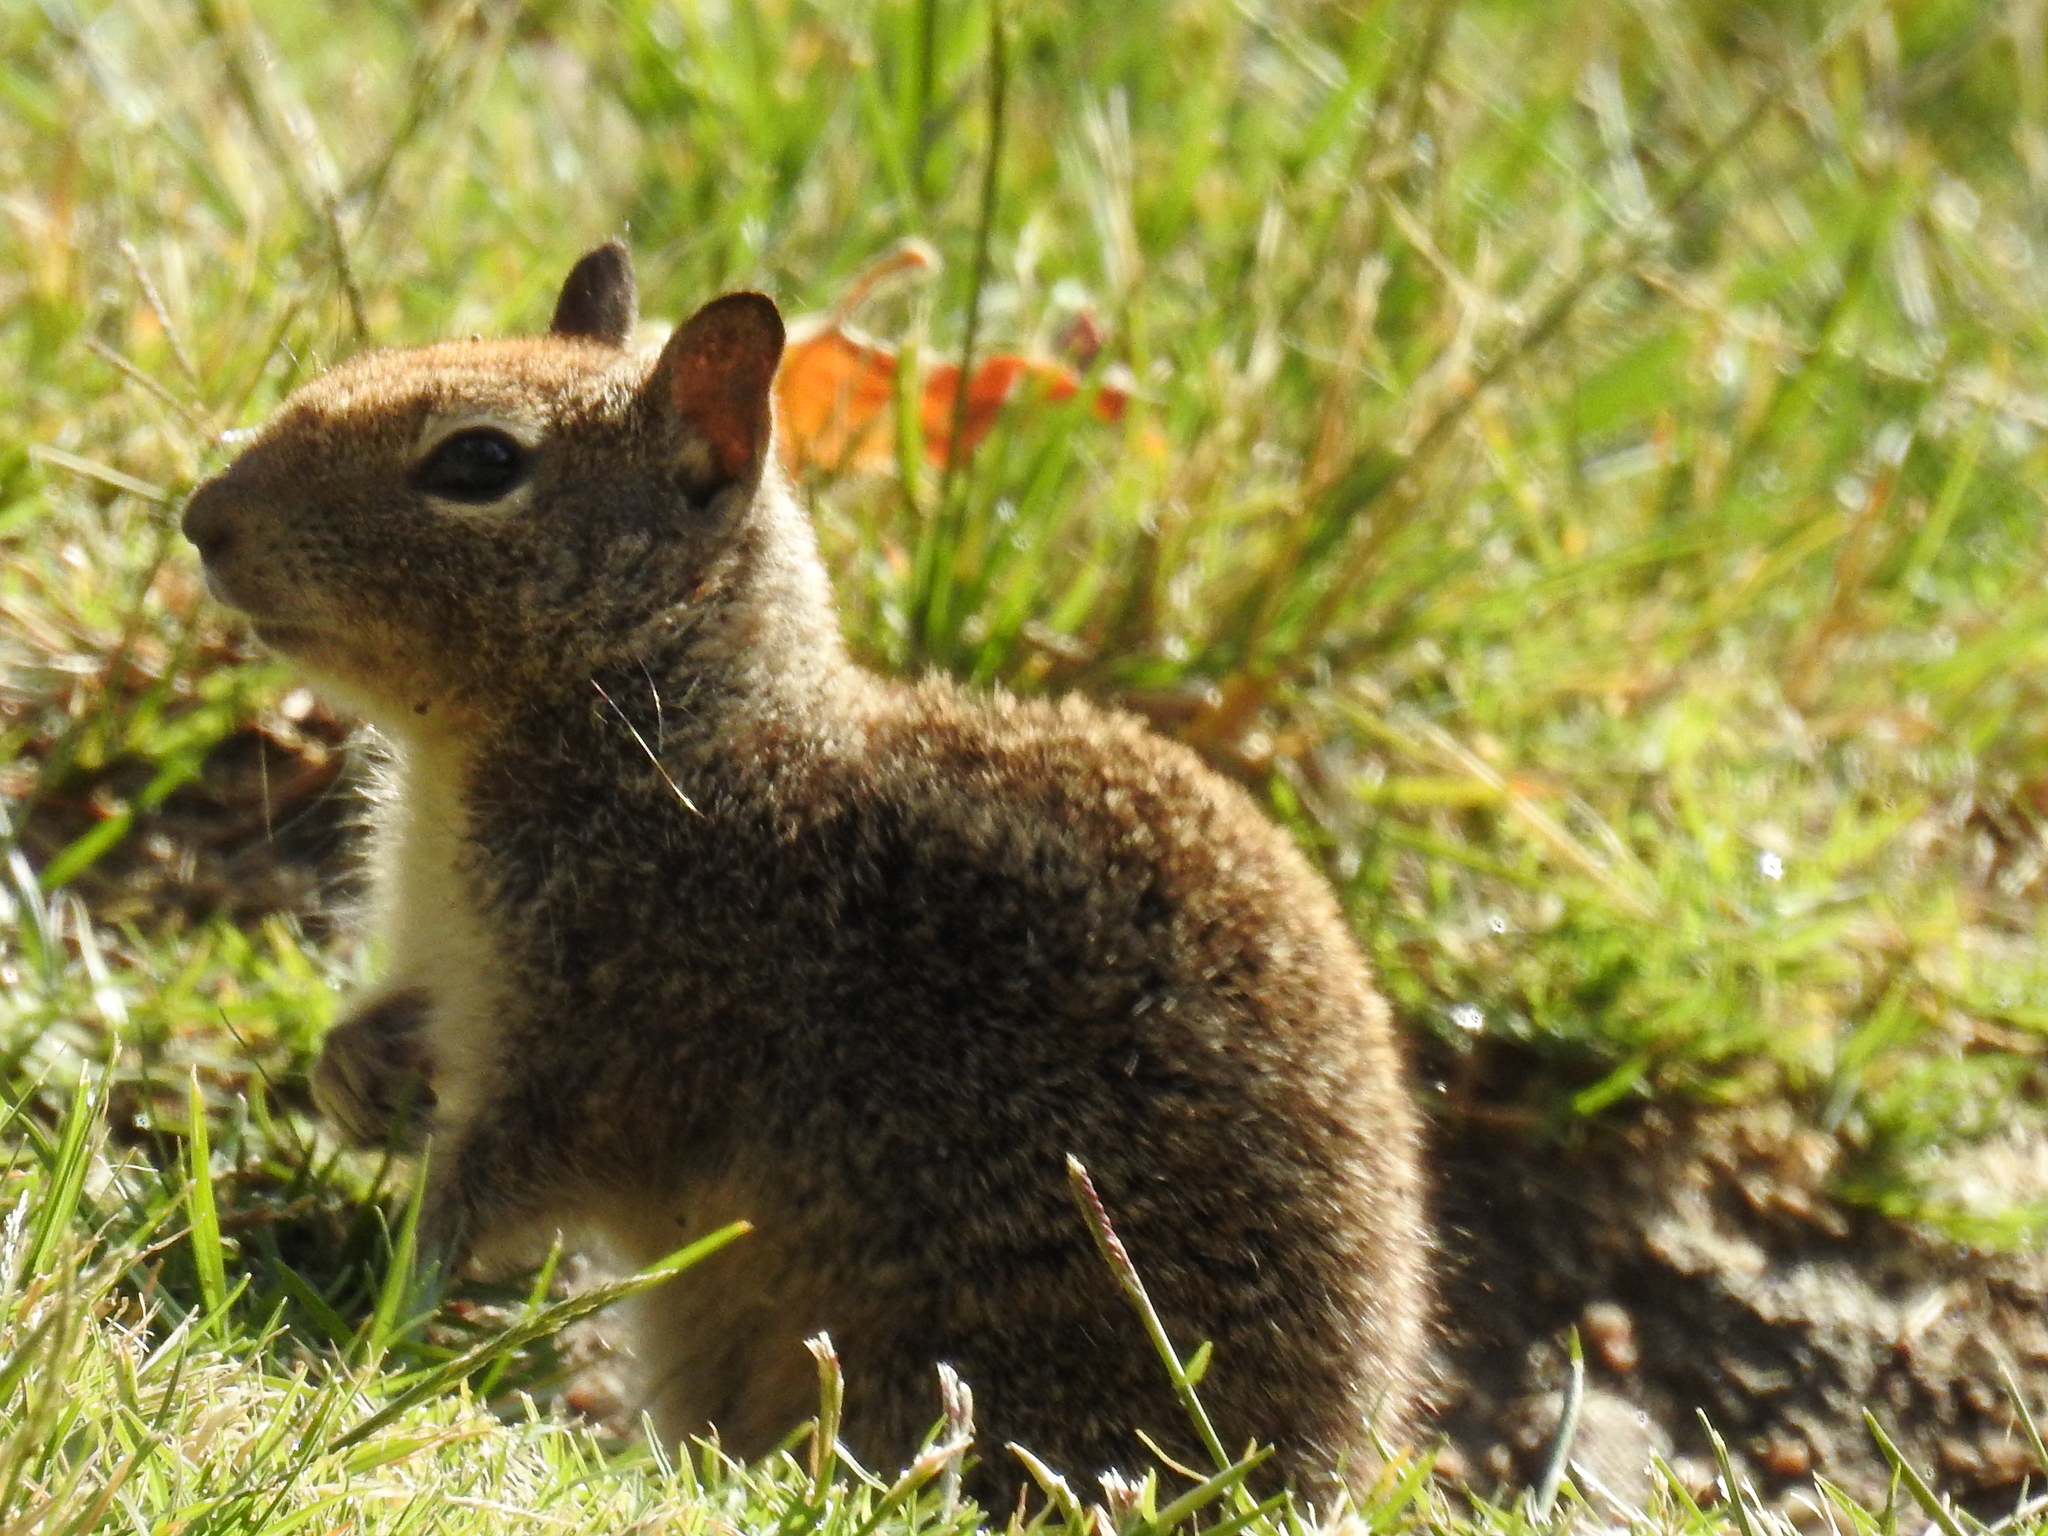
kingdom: Animalia
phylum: Chordata
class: Mammalia
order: Rodentia
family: Sciuridae
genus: Otospermophilus
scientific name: Otospermophilus beecheyi
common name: California ground squirrel
